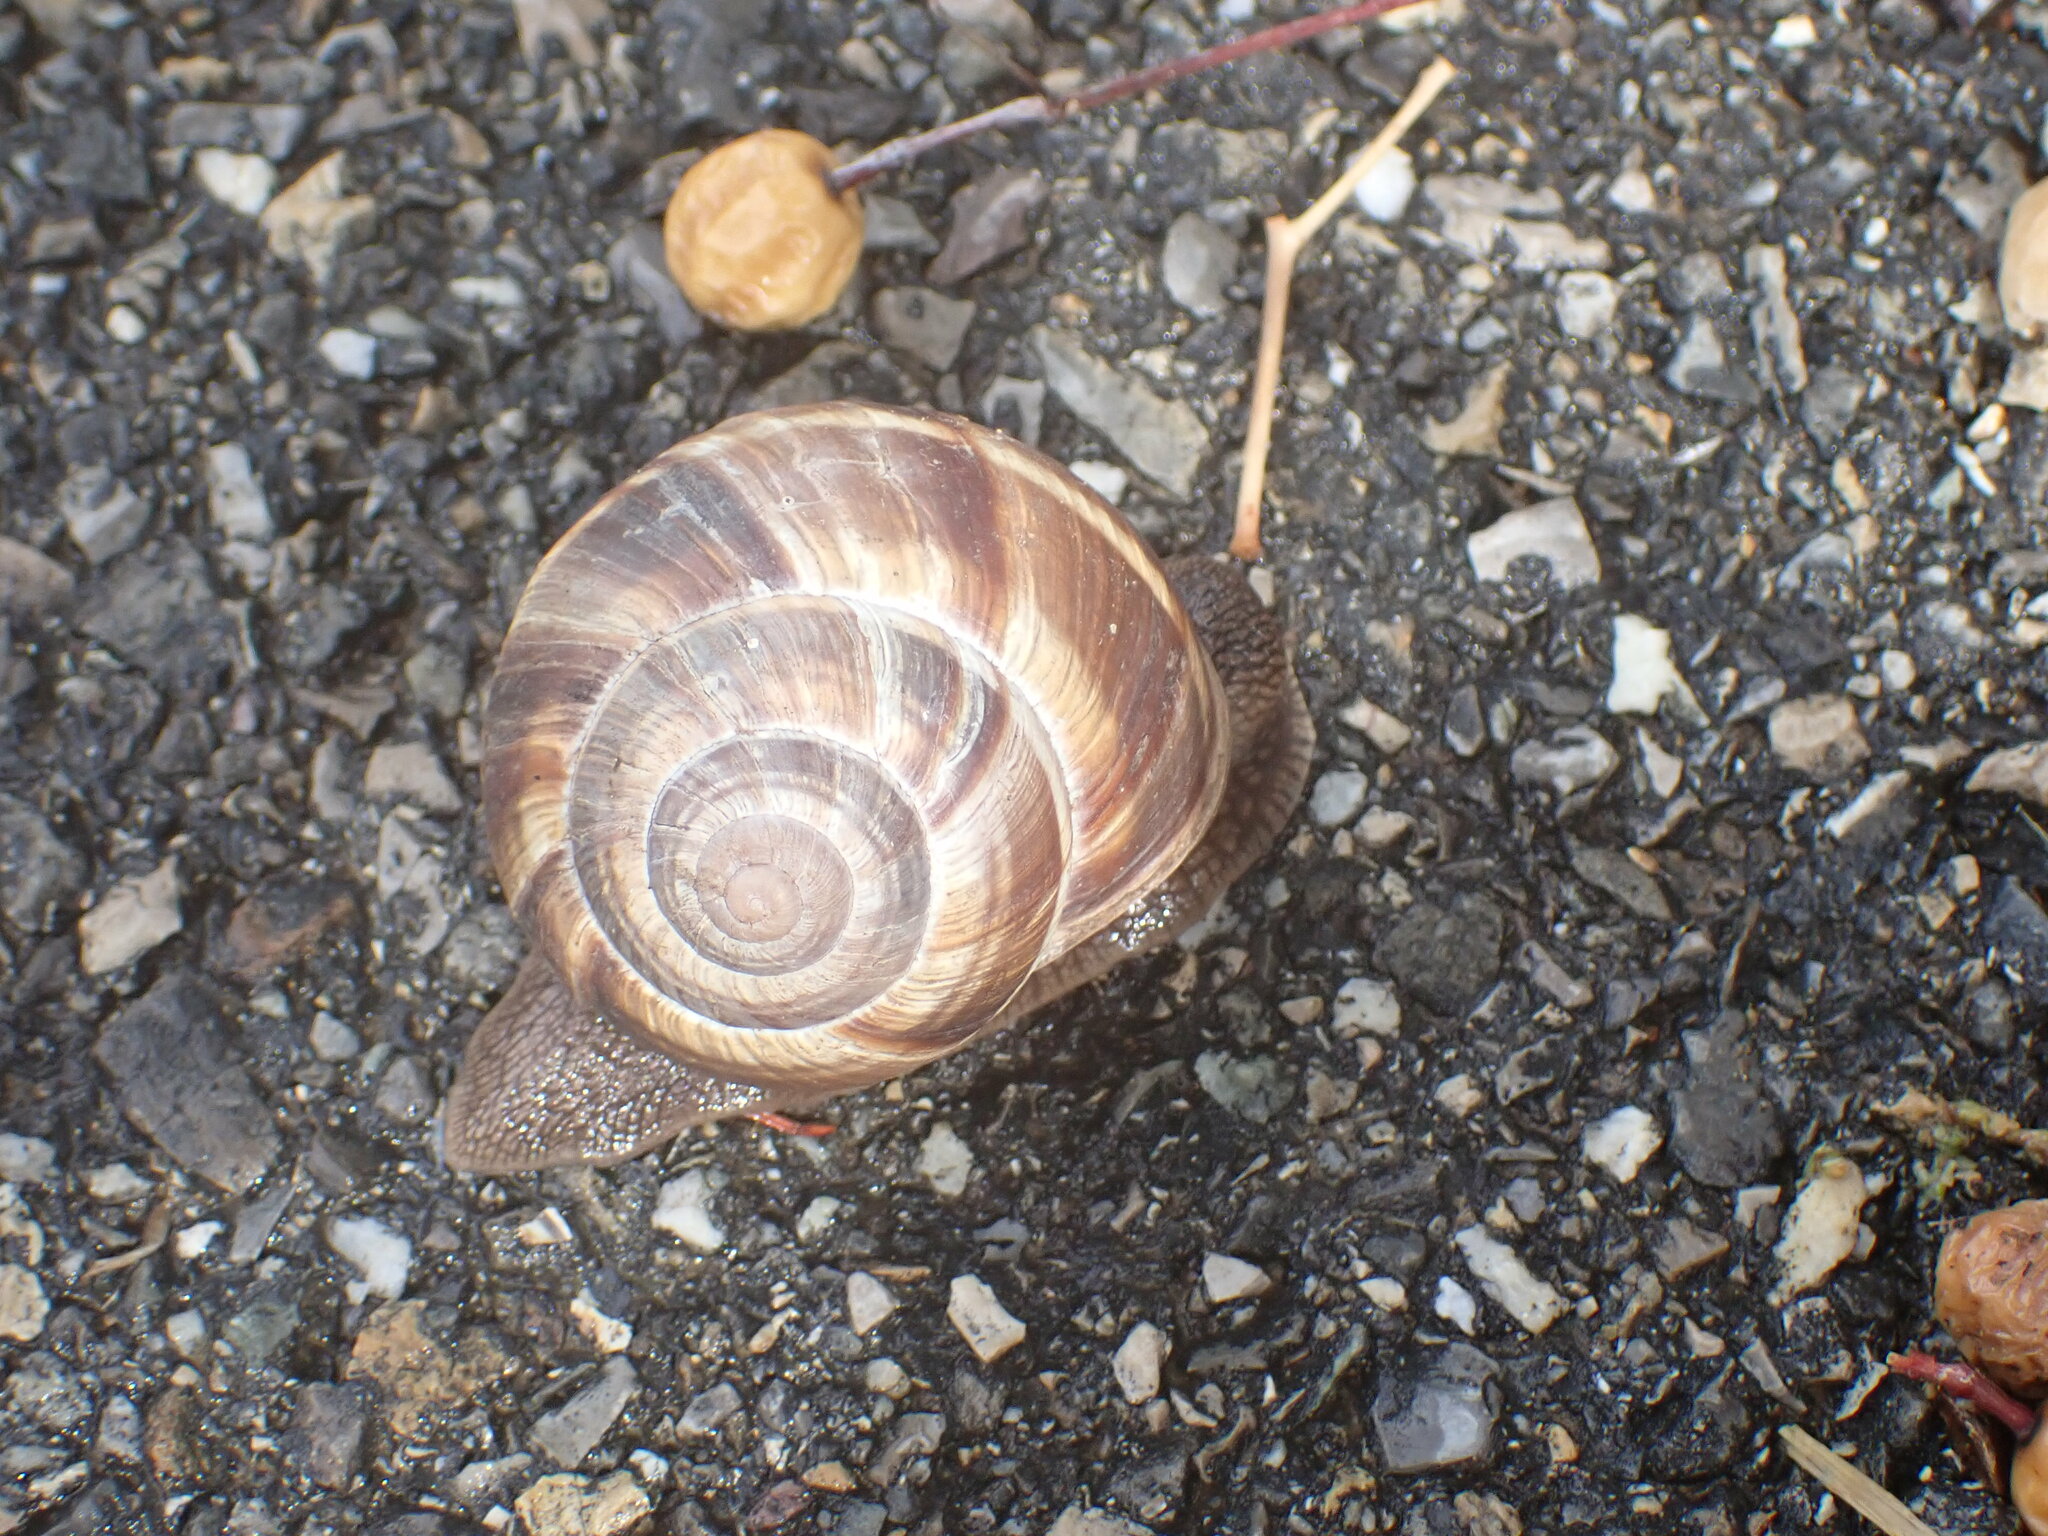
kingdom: Animalia
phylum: Mollusca
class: Gastropoda
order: Stylommatophora
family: Helicidae
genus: Helix
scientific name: Helix lucorum
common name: Turkish snail
